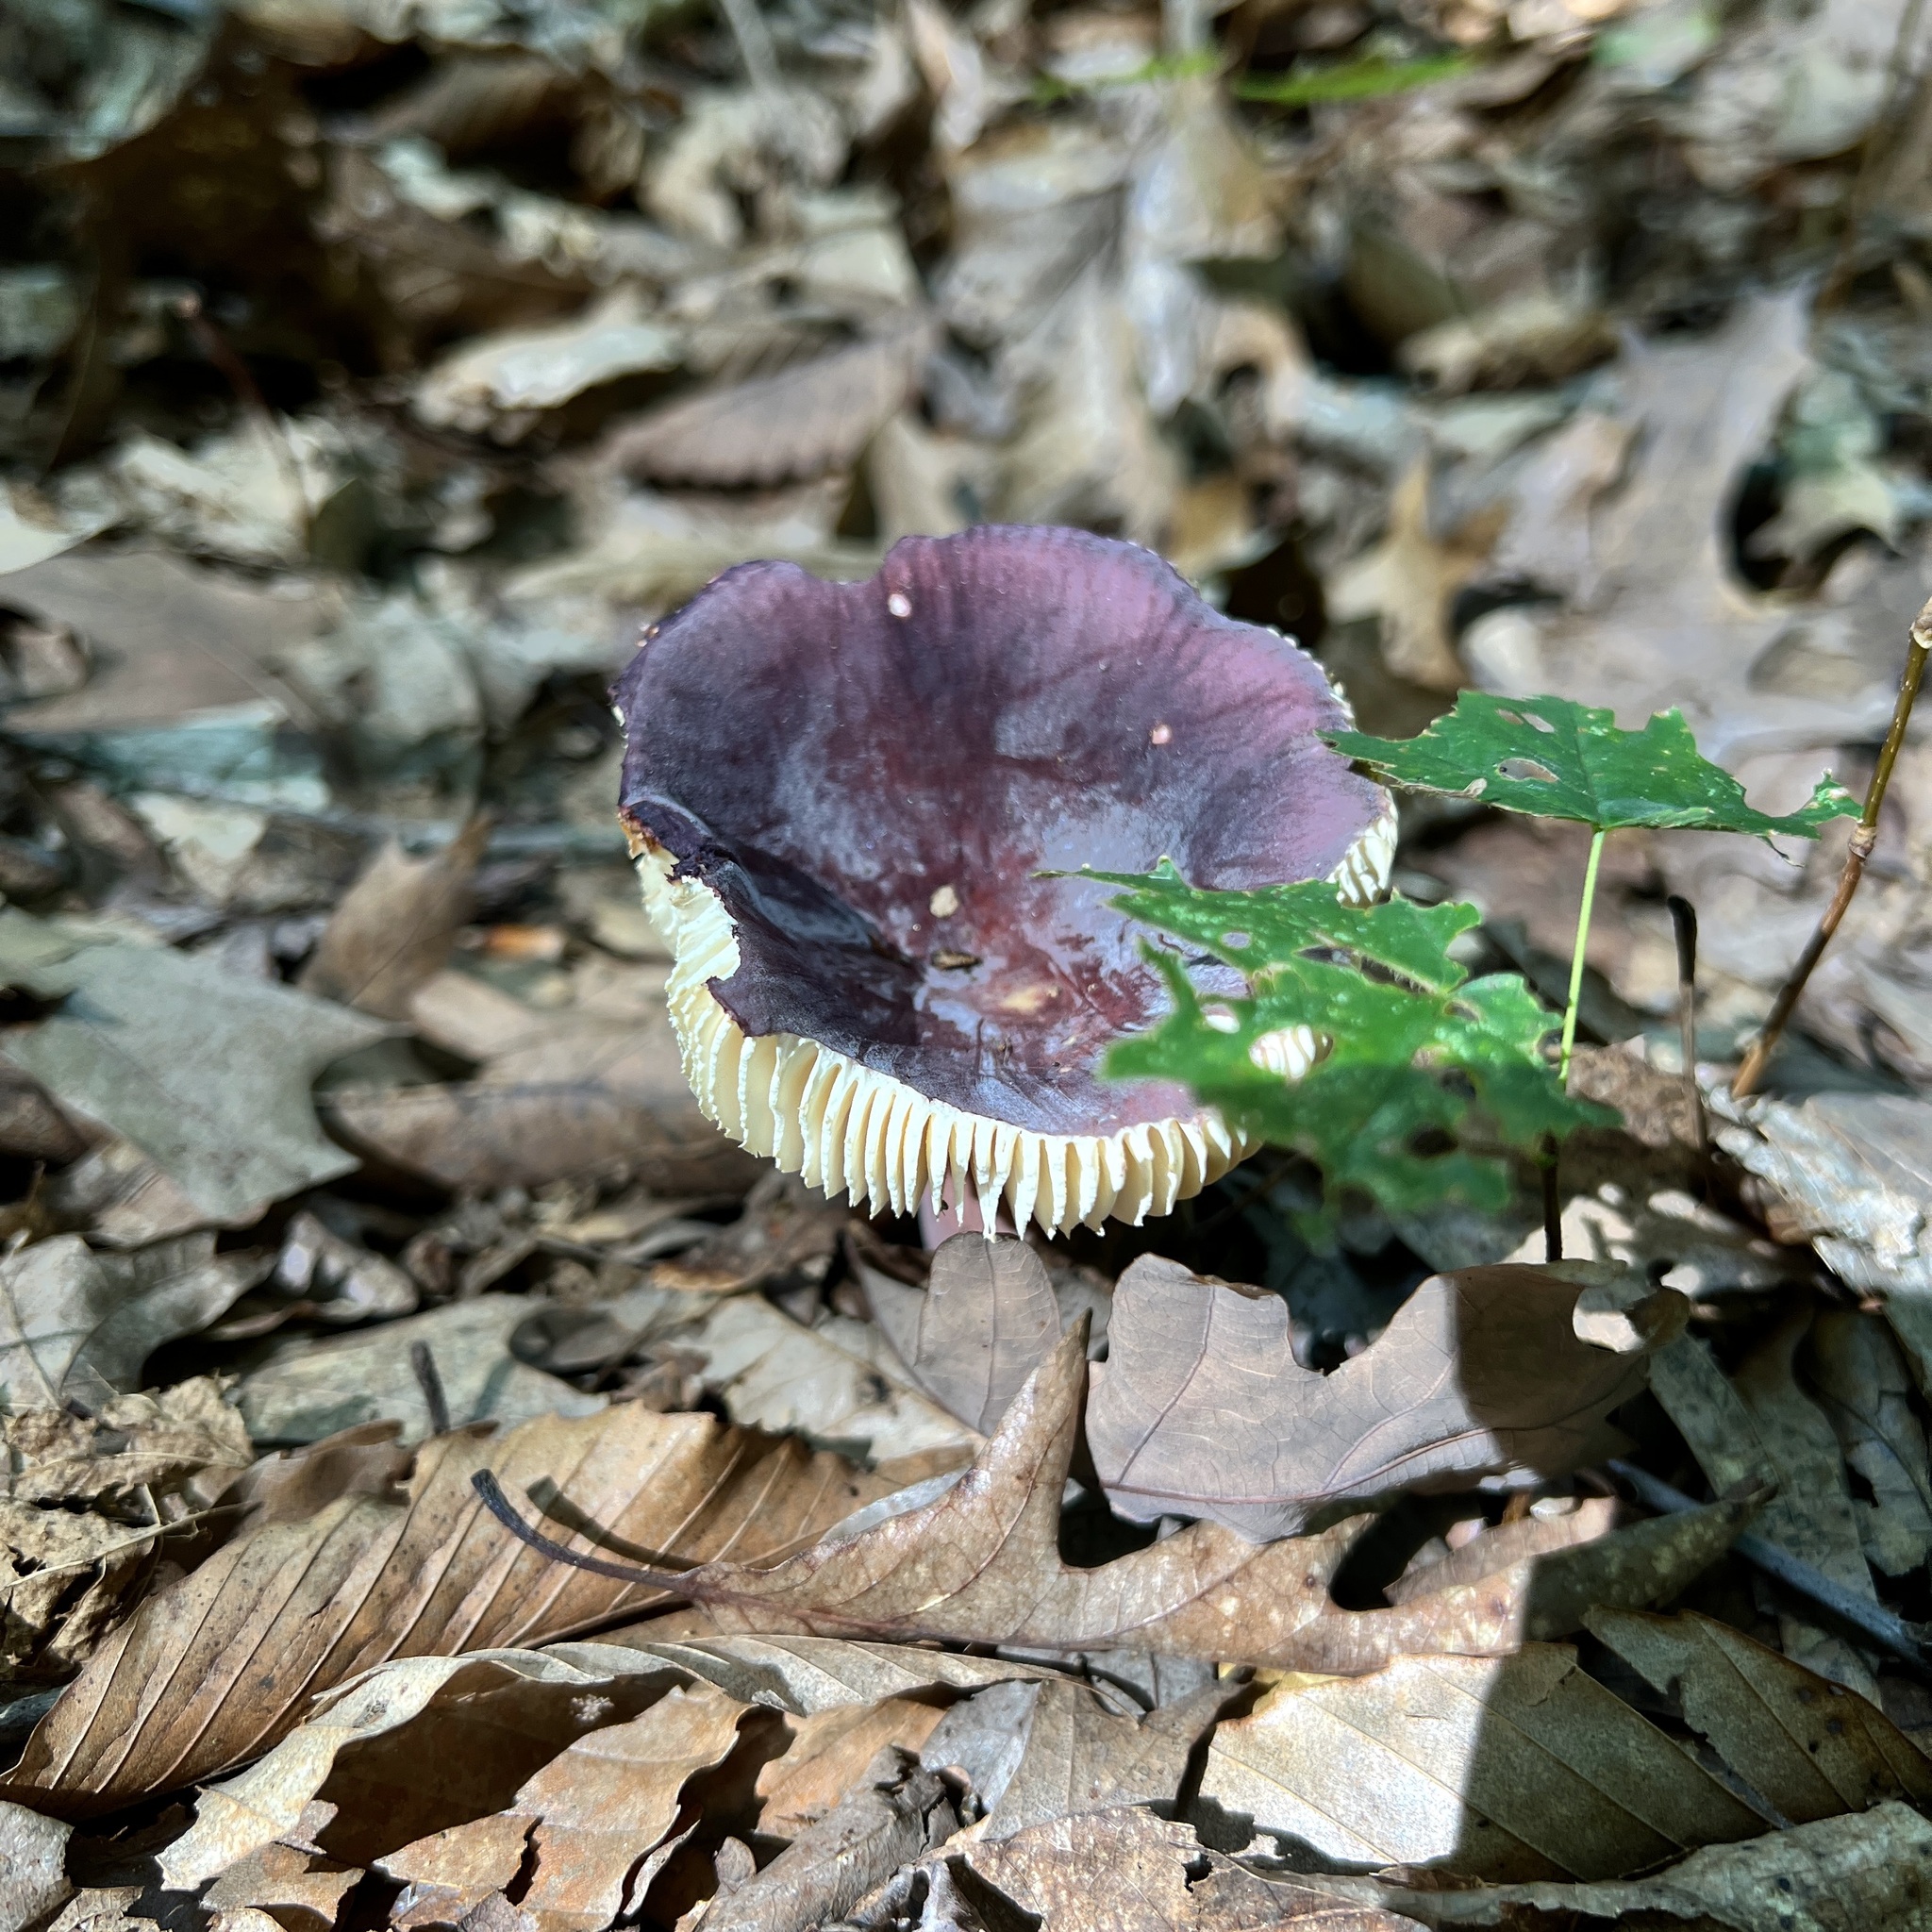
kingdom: Fungi
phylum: Basidiomycota
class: Agaricomycetes
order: Russulales
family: Russulaceae
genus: Russula
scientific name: Russula mariae
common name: Purple-bloom russula
